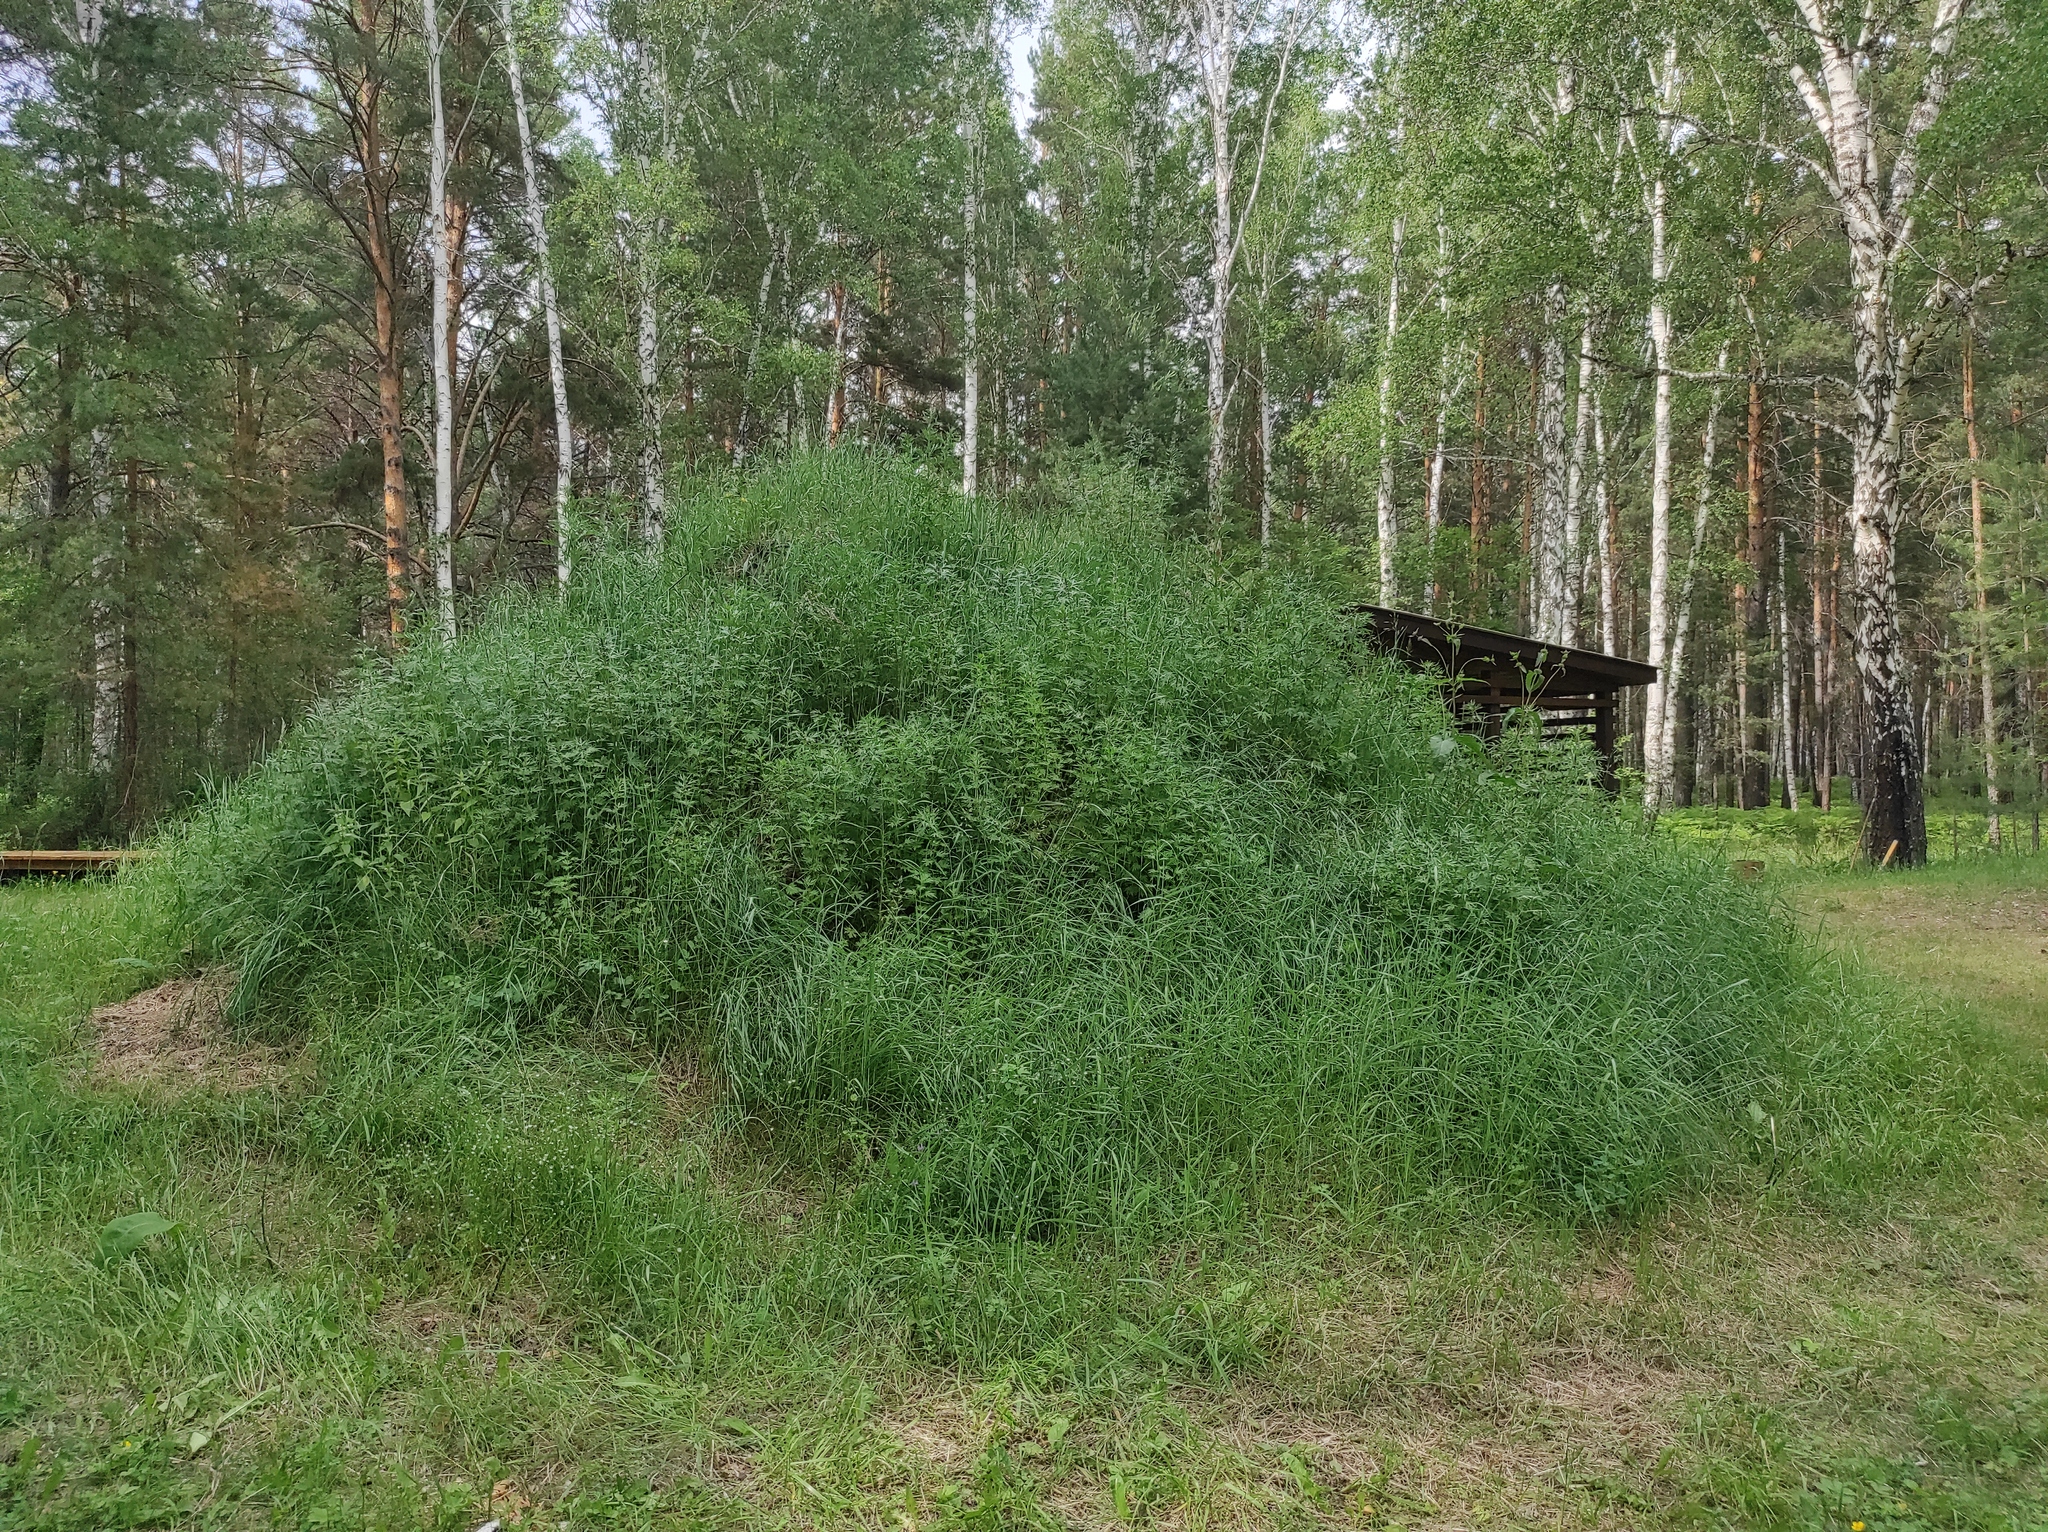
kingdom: Plantae
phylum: Tracheophyta
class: Magnoliopsida
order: Saxifragales
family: Crassulaceae
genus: Phedimus
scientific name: Phedimus aizoon
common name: Orpin aizoon
